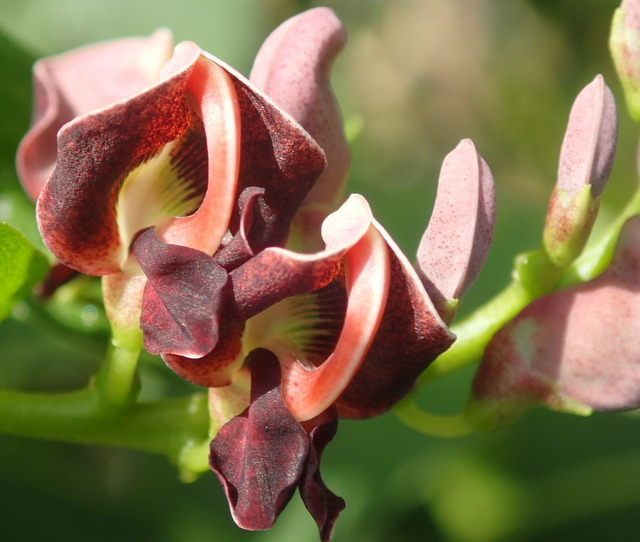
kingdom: Plantae
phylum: Tracheophyta
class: Magnoliopsida
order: Fabales
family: Fabaceae
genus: Apios
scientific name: Apios americana
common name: American potato-bean
